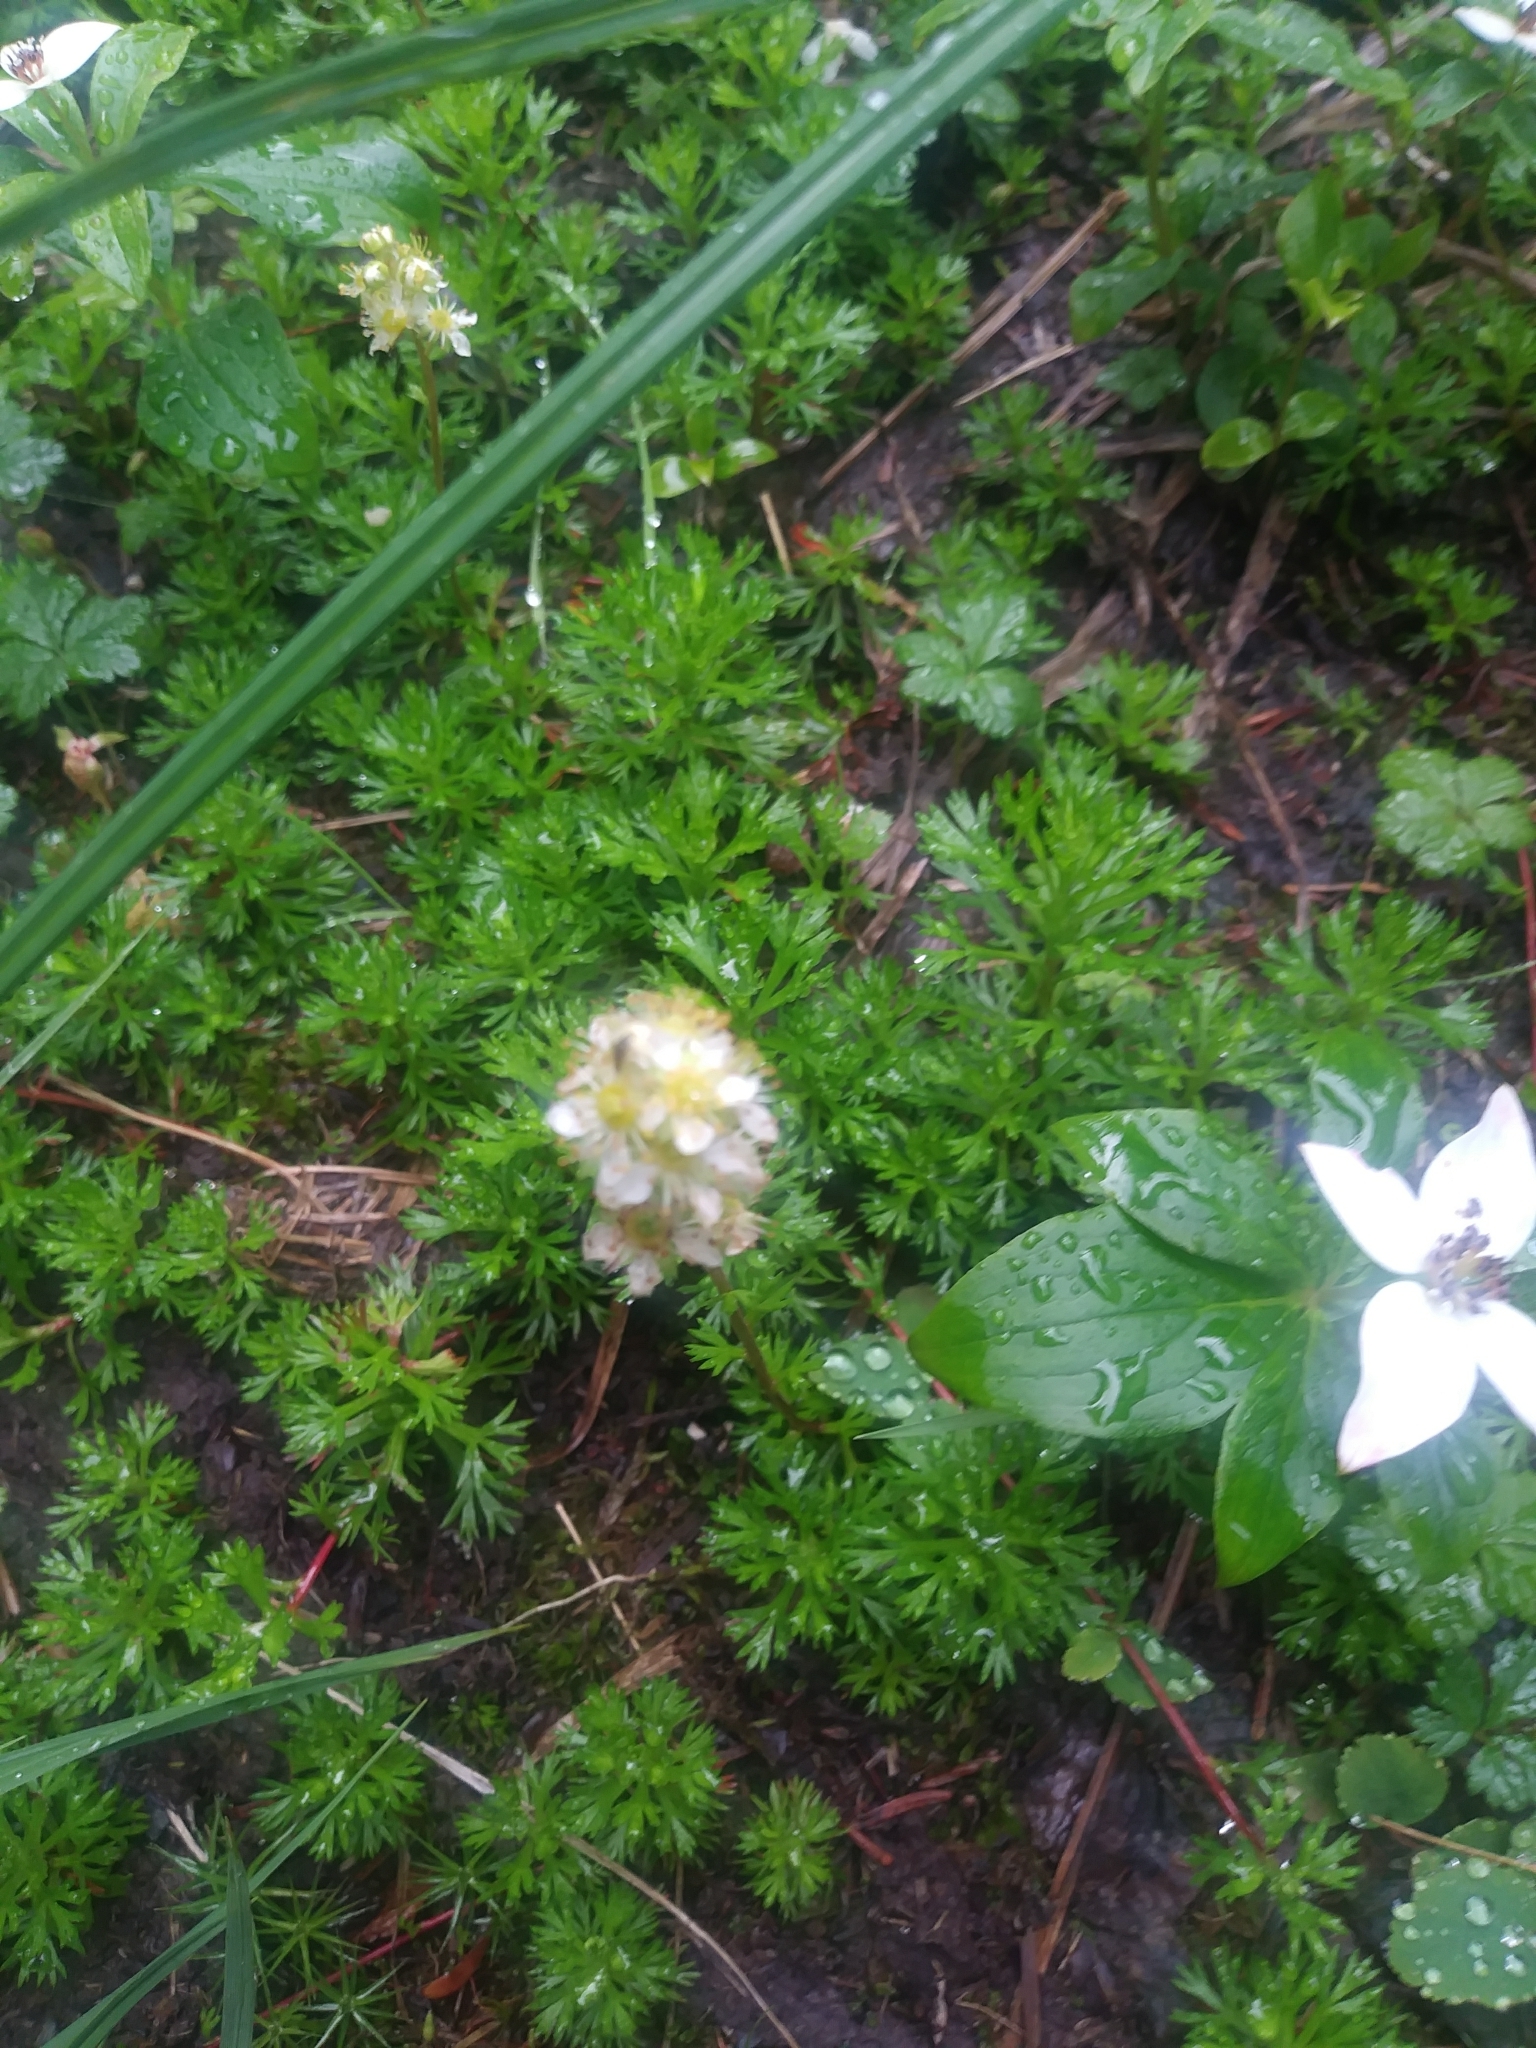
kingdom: Plantae
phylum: Tracheophyta
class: Magnoliopsida
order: Rosales
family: Rosaceae
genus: Luetkea
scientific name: Luetkea pectinata
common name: Partridgefoot
